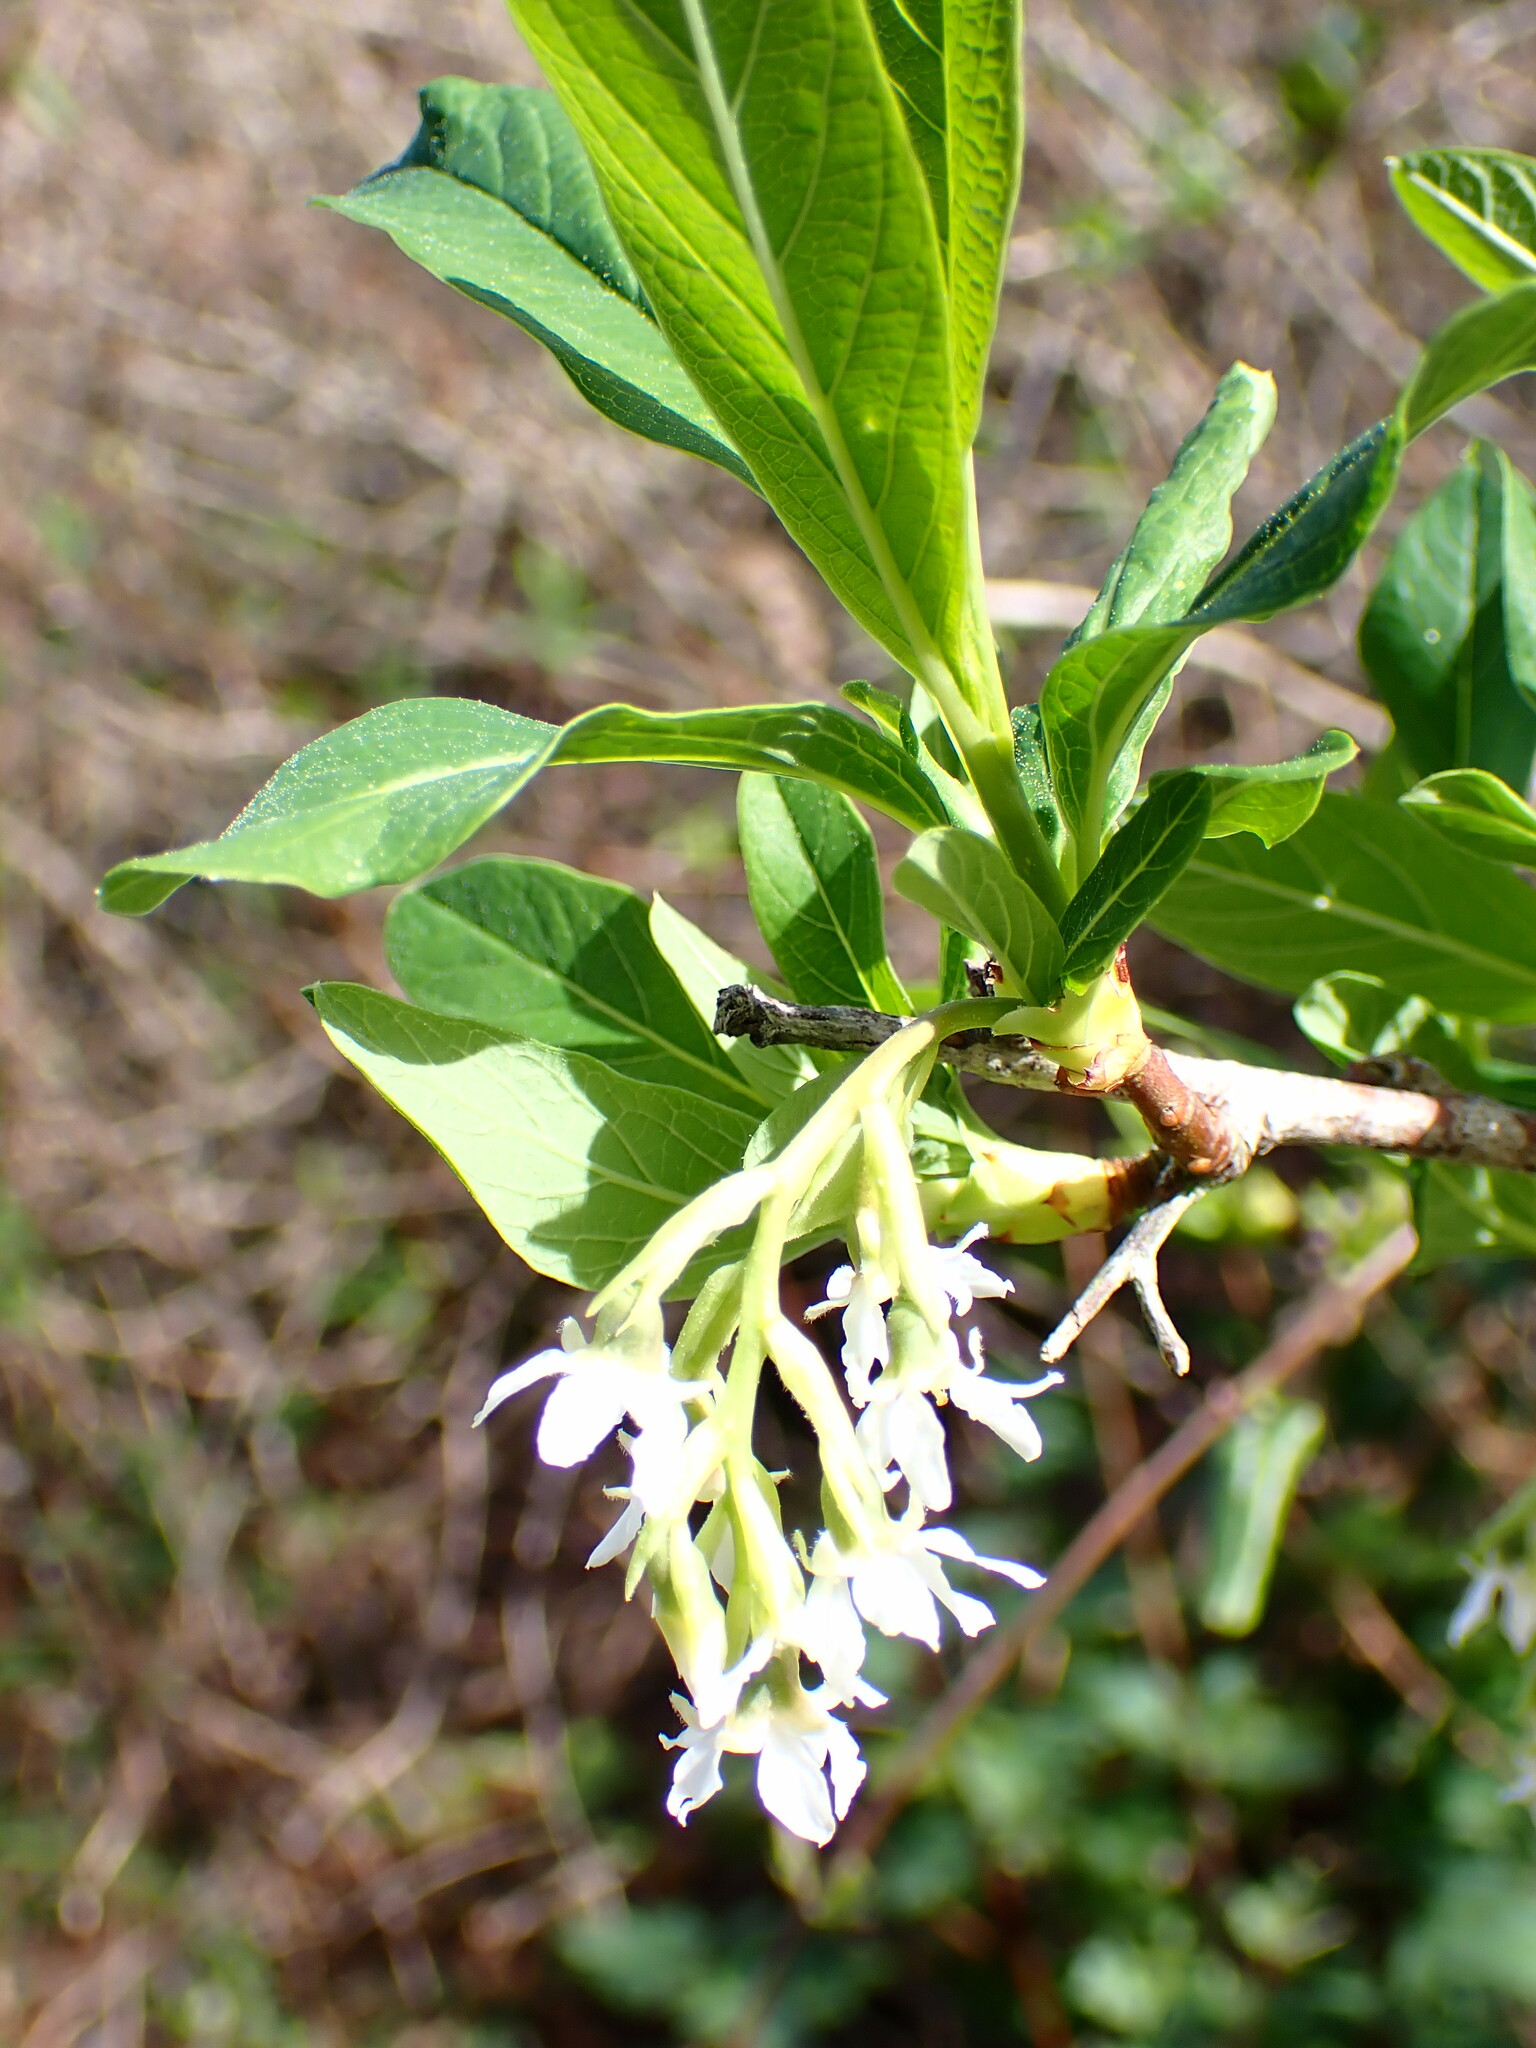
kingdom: Plantae
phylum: Tracheophyta
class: Magnoliopsida
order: Rosales
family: Rosaceae
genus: Oemleria
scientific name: Oemleria cerasiformis
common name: Osoberry
